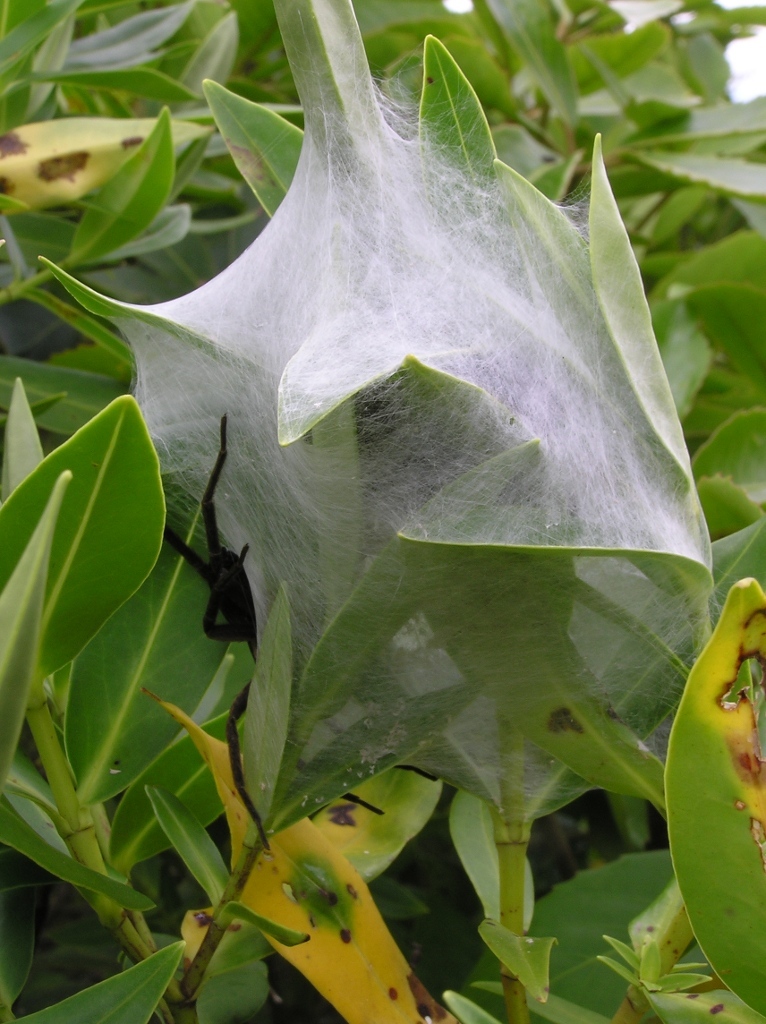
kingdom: Animalia
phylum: Arthropoda
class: Arachnida
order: Araneae
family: Pisauridae
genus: Dolomedes
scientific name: Dolomedes minor
